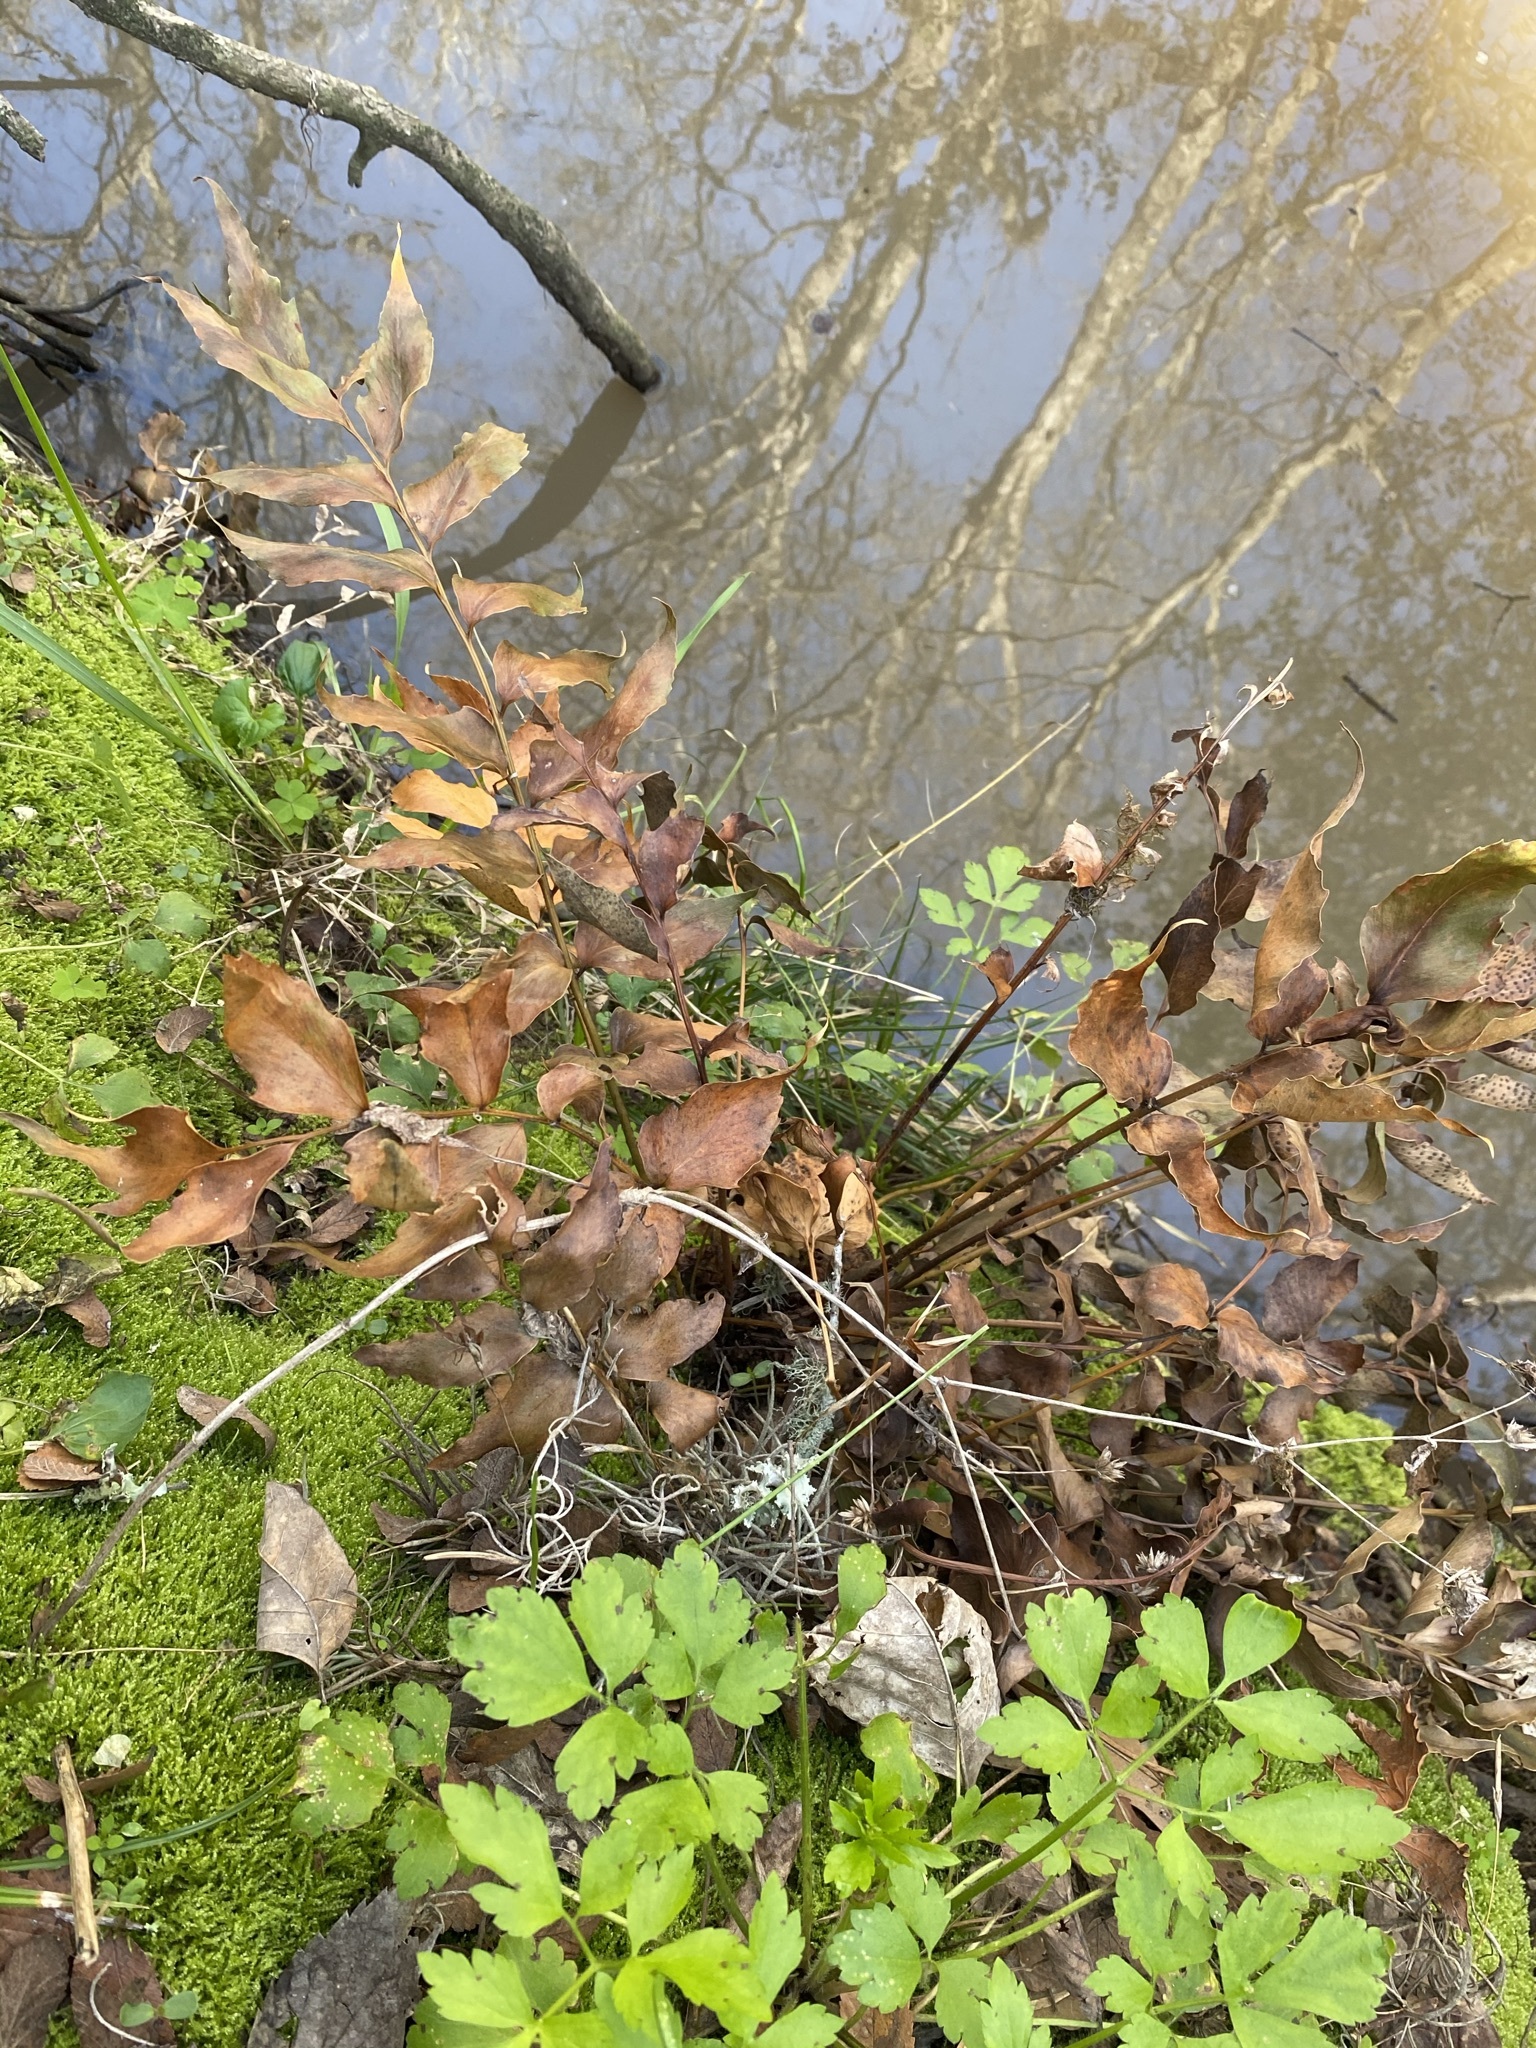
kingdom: Plantae
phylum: Tracheophyta
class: Polypodiopsida
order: Polypodiales
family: Dryopteridaceae
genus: Cyrtomium
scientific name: Cyrtomium falcatum
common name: House holly-fern
